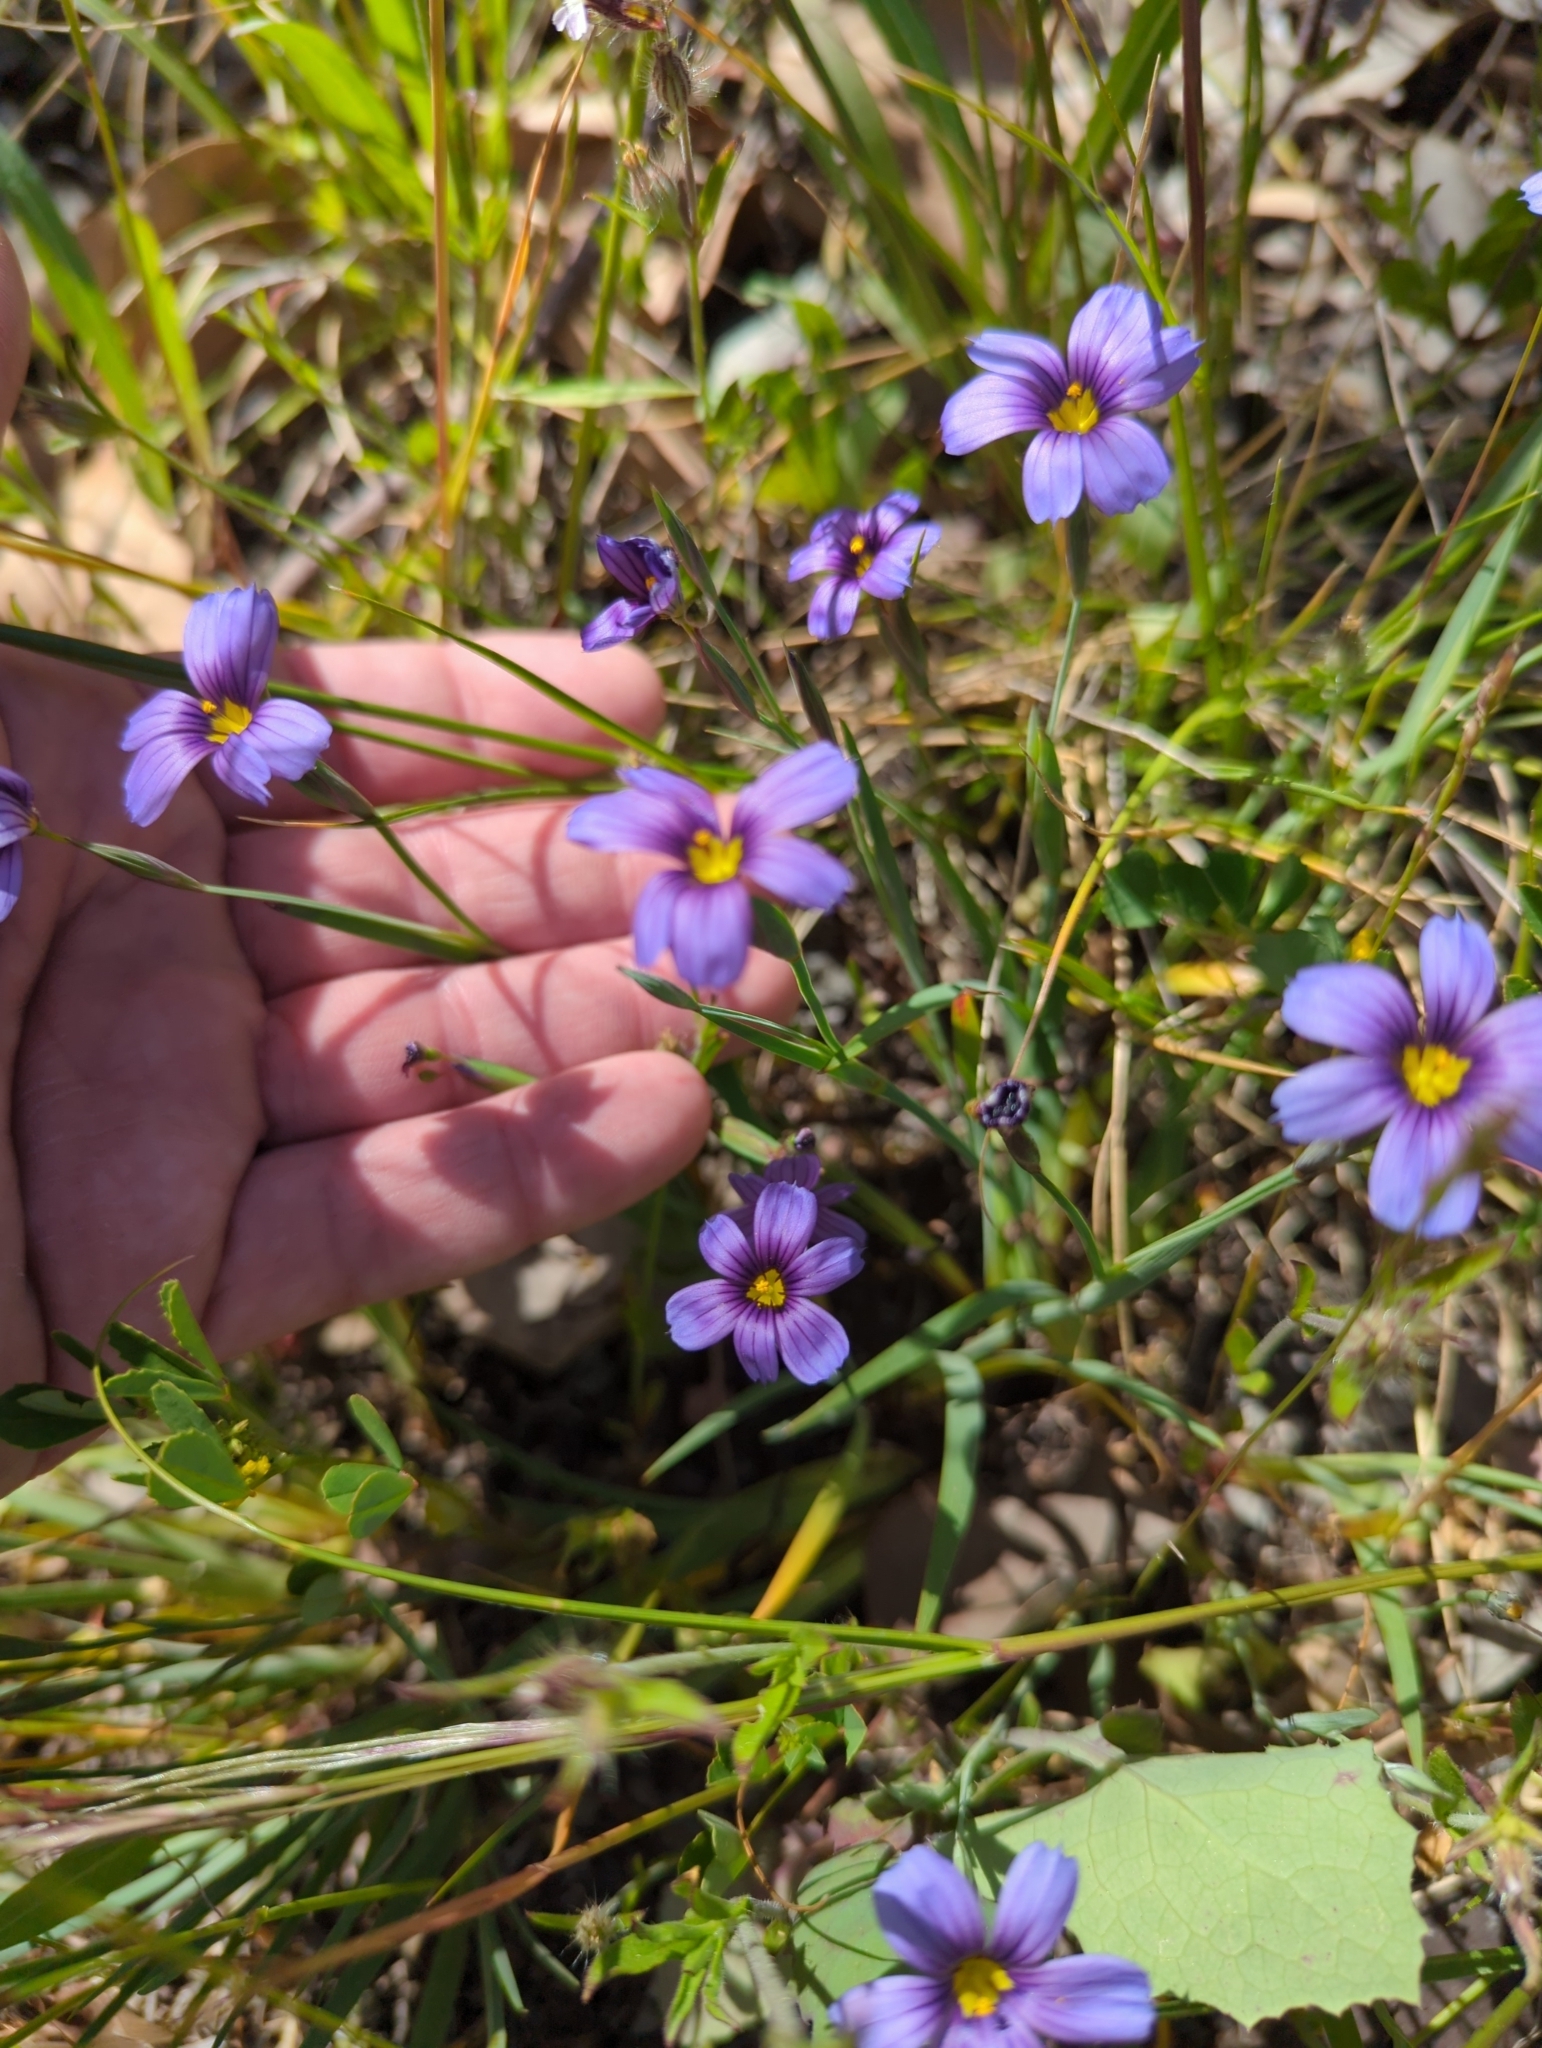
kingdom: Plantae
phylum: Tracheophyta
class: Liliopsida
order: Asparagales
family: Iridaceae
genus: Sisyrinchium
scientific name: Sisyrinchium bellum
